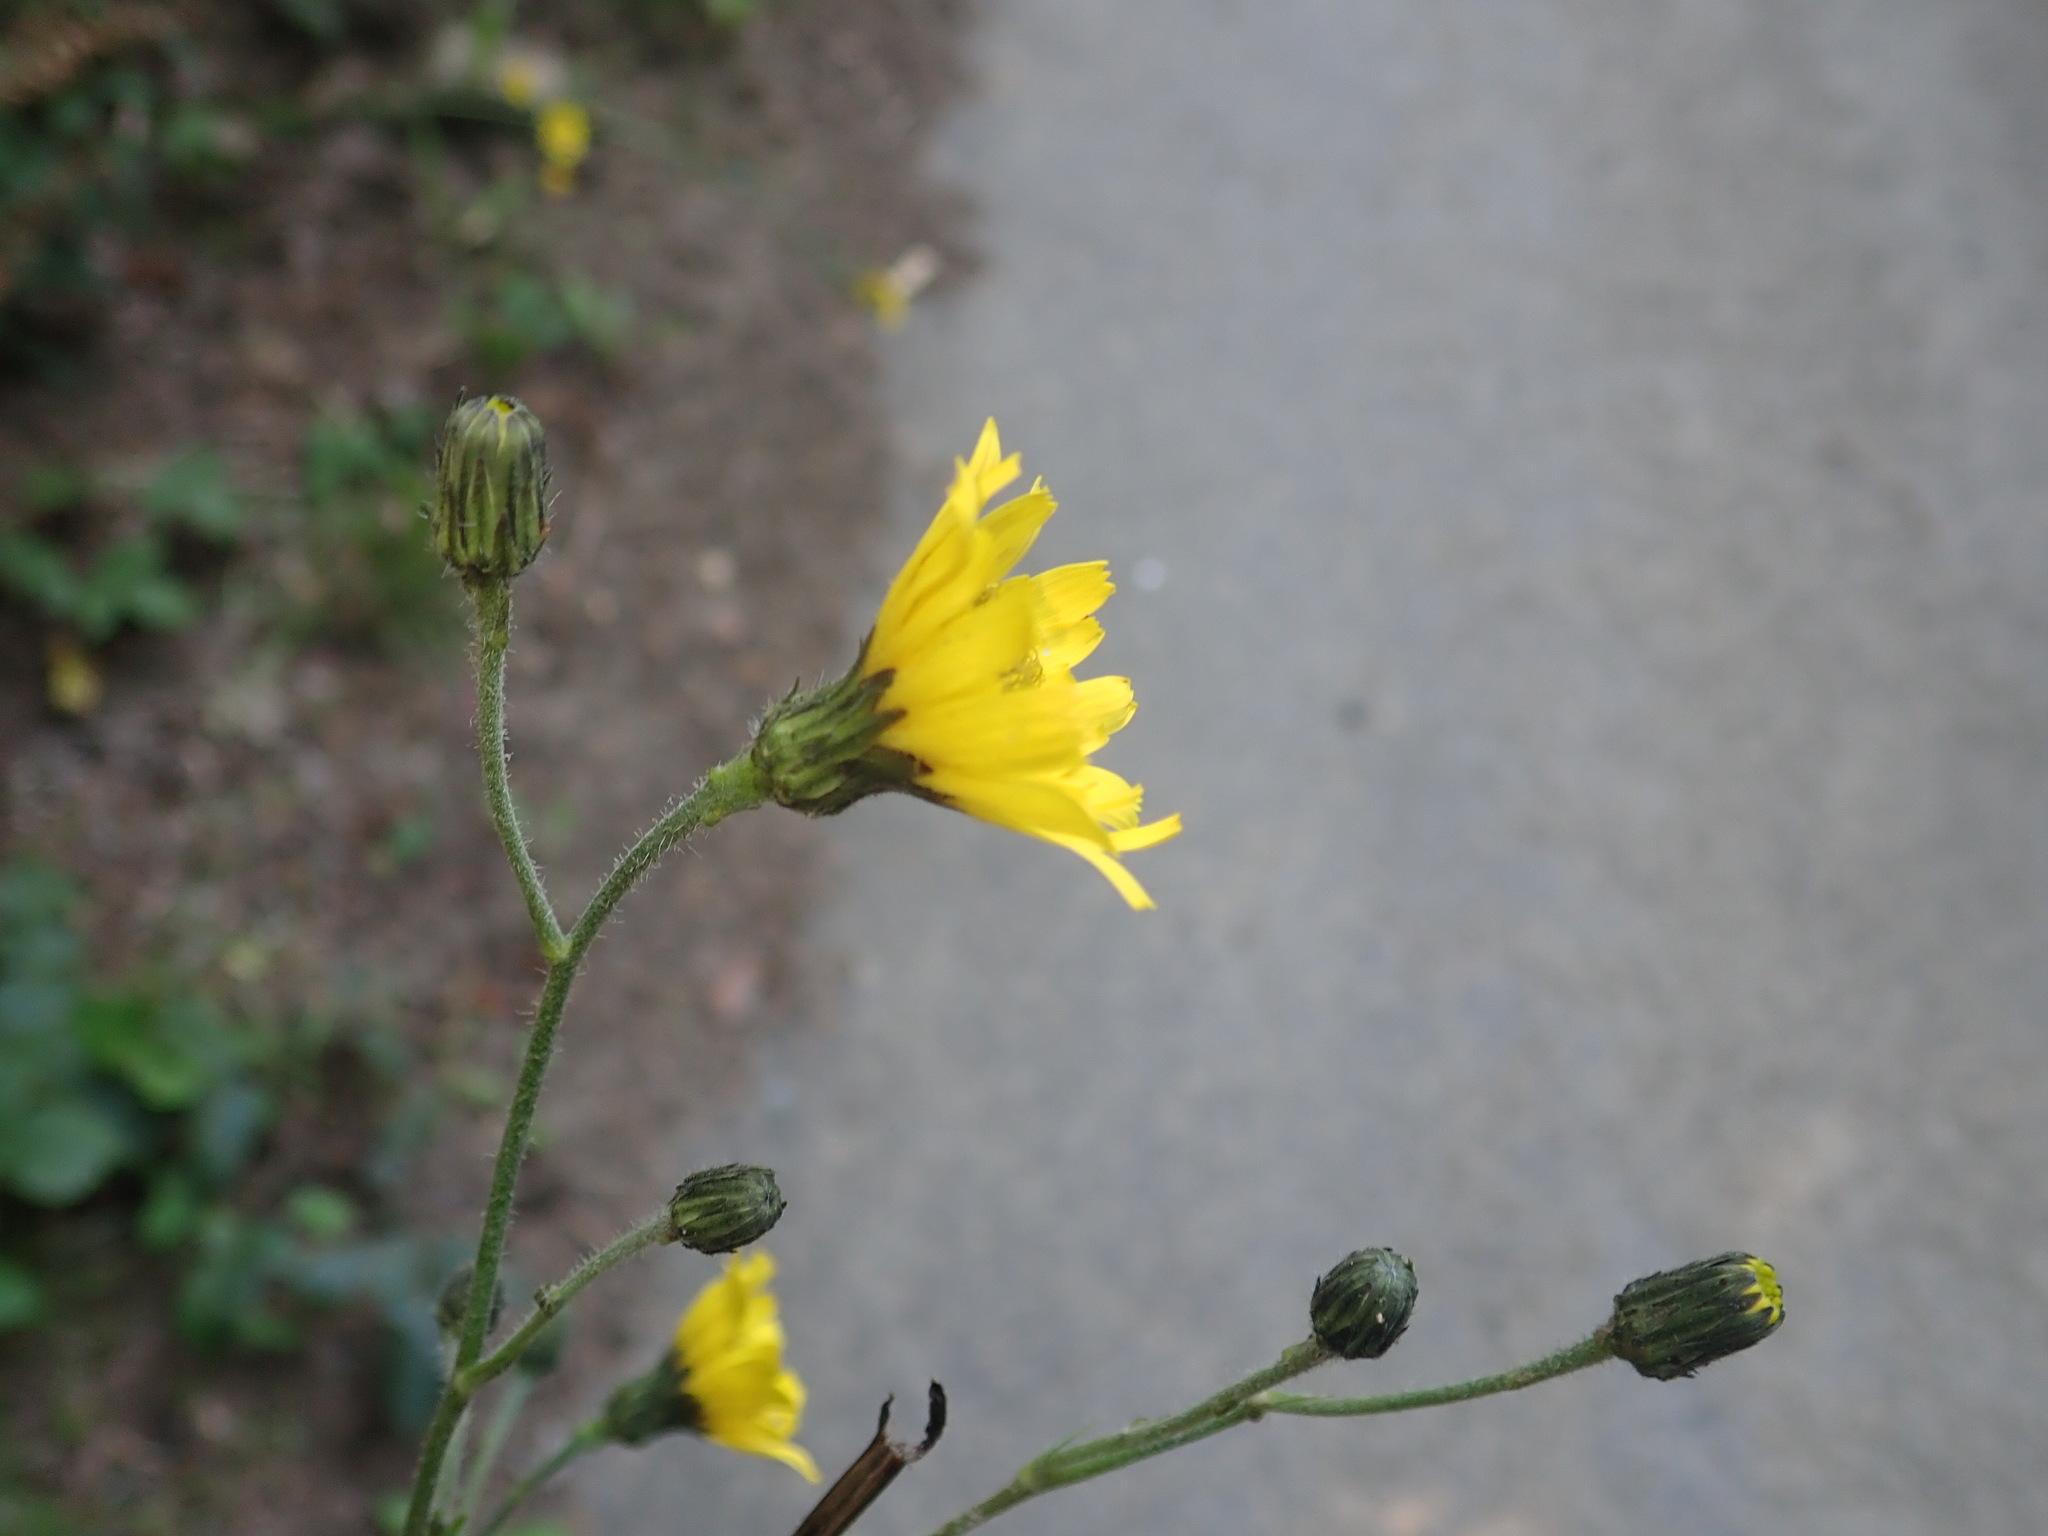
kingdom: Plantae
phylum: Tracheophyta
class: Magnoliopsida
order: Asterales
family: Asteraceae
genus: Hieracium
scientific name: Hieracium sabaudum
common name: New england hawkweed
